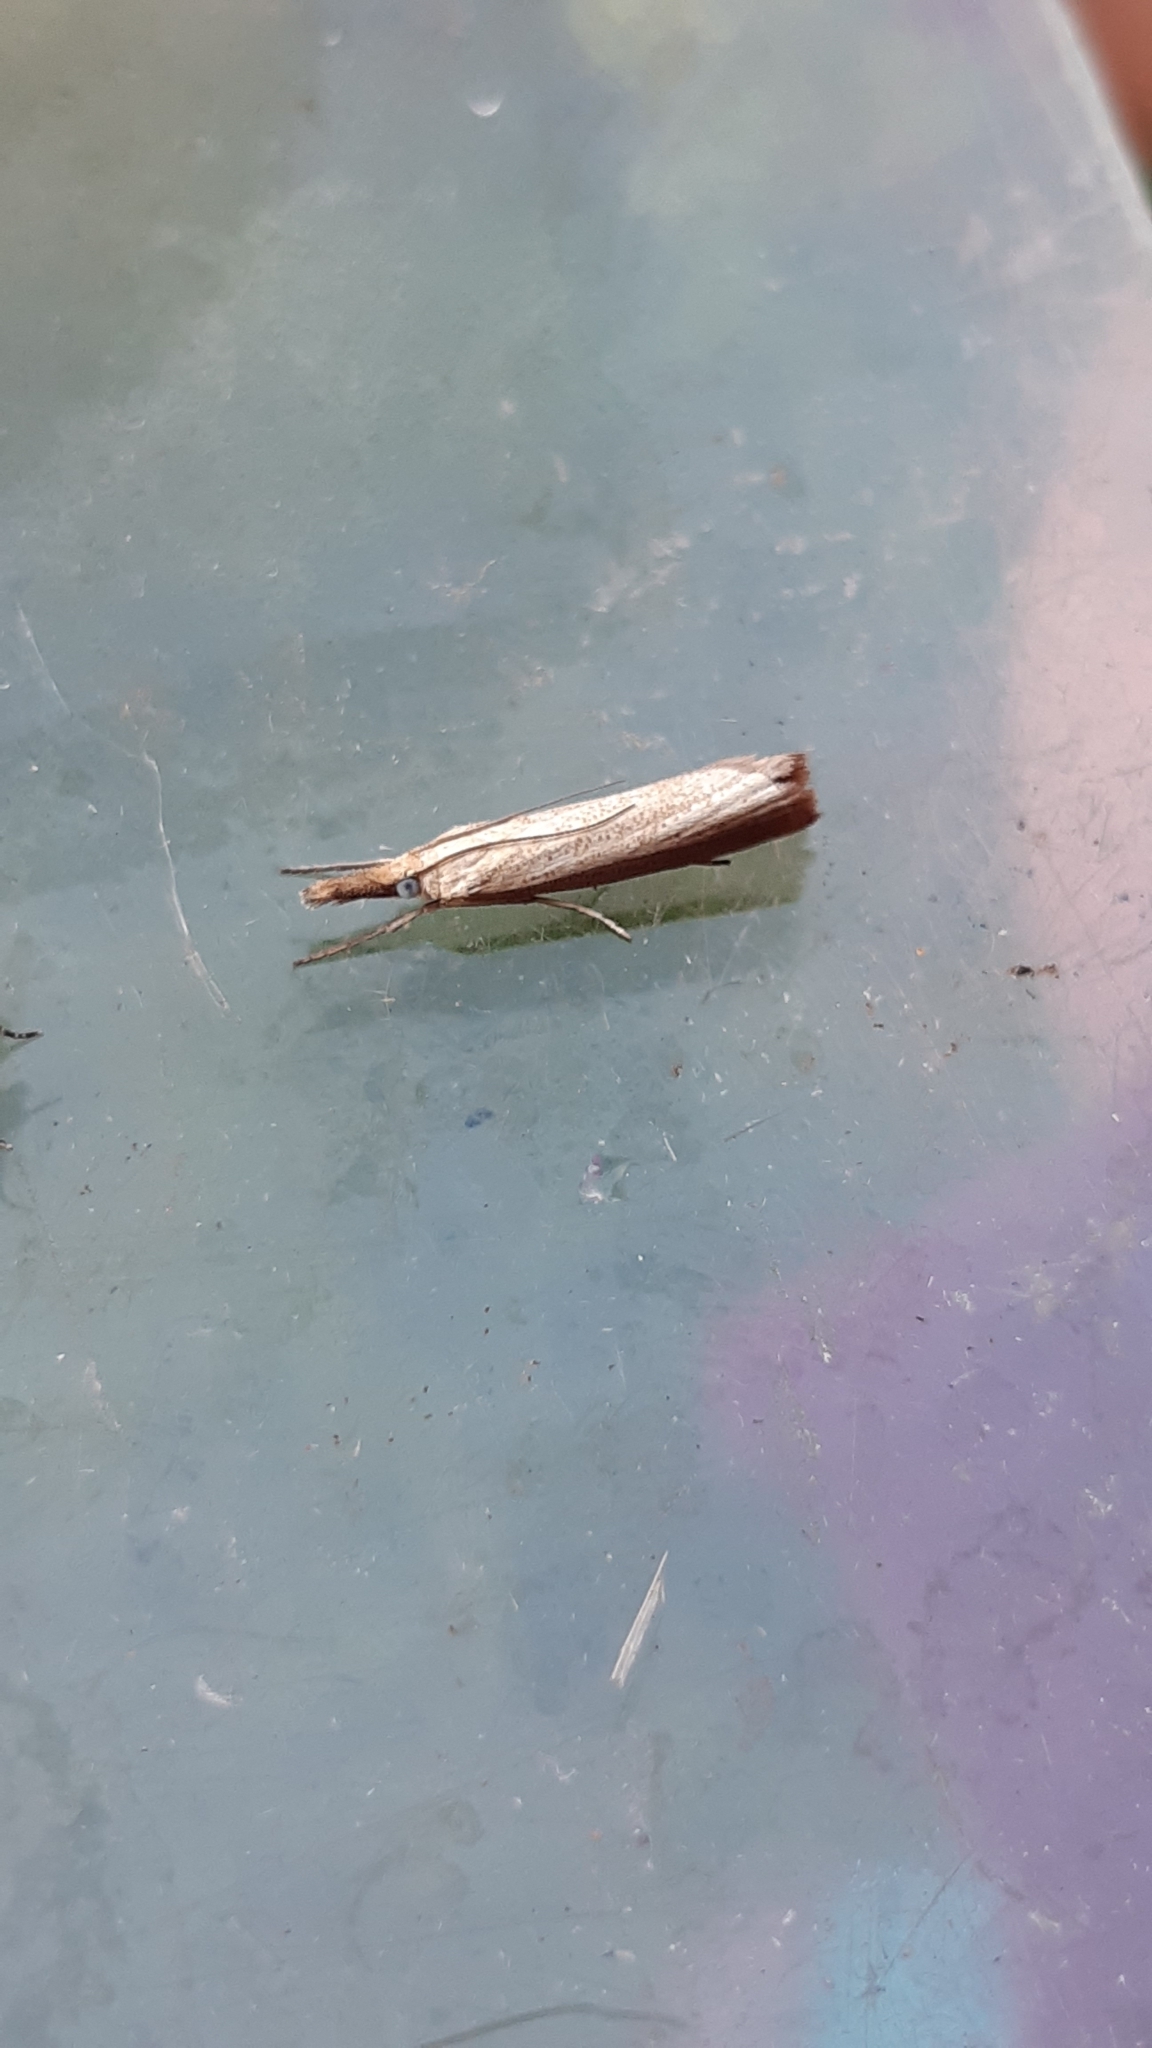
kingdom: Animalia
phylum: Arthropoda
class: Insecta
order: Lepidoptera
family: Crambidae
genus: Agriphila
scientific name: Agriphila straminella
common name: Straw grass-veneer
